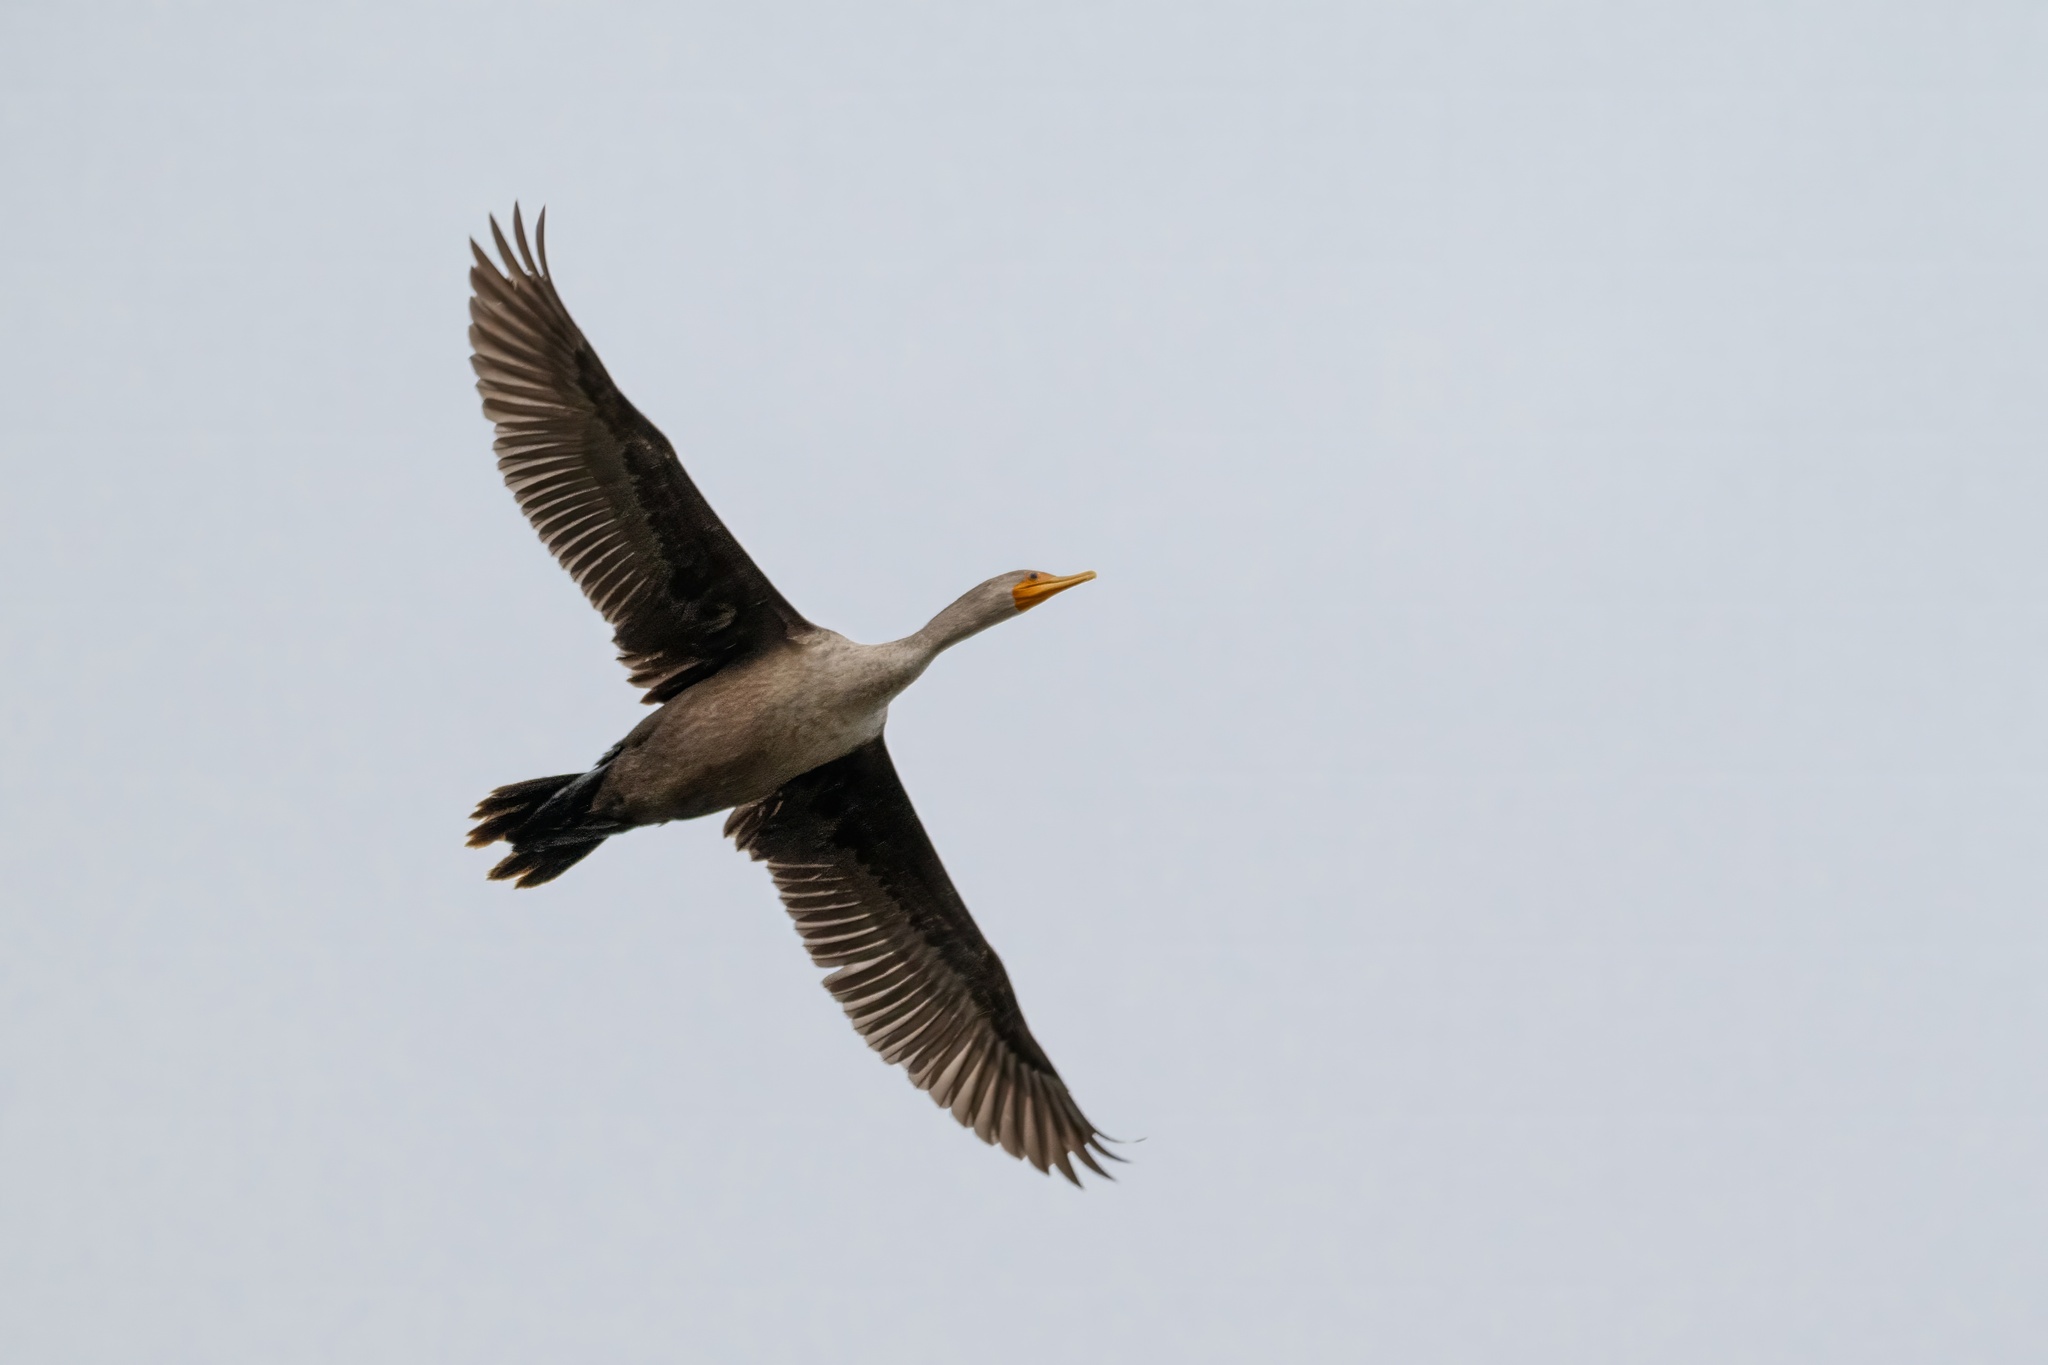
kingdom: Animalia
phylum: Chordata
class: Aves
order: Suliformes
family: Phalacrocoracidae
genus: Phalacrocorax
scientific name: Phalacrocorax auritus
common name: Double-crested cormorant
